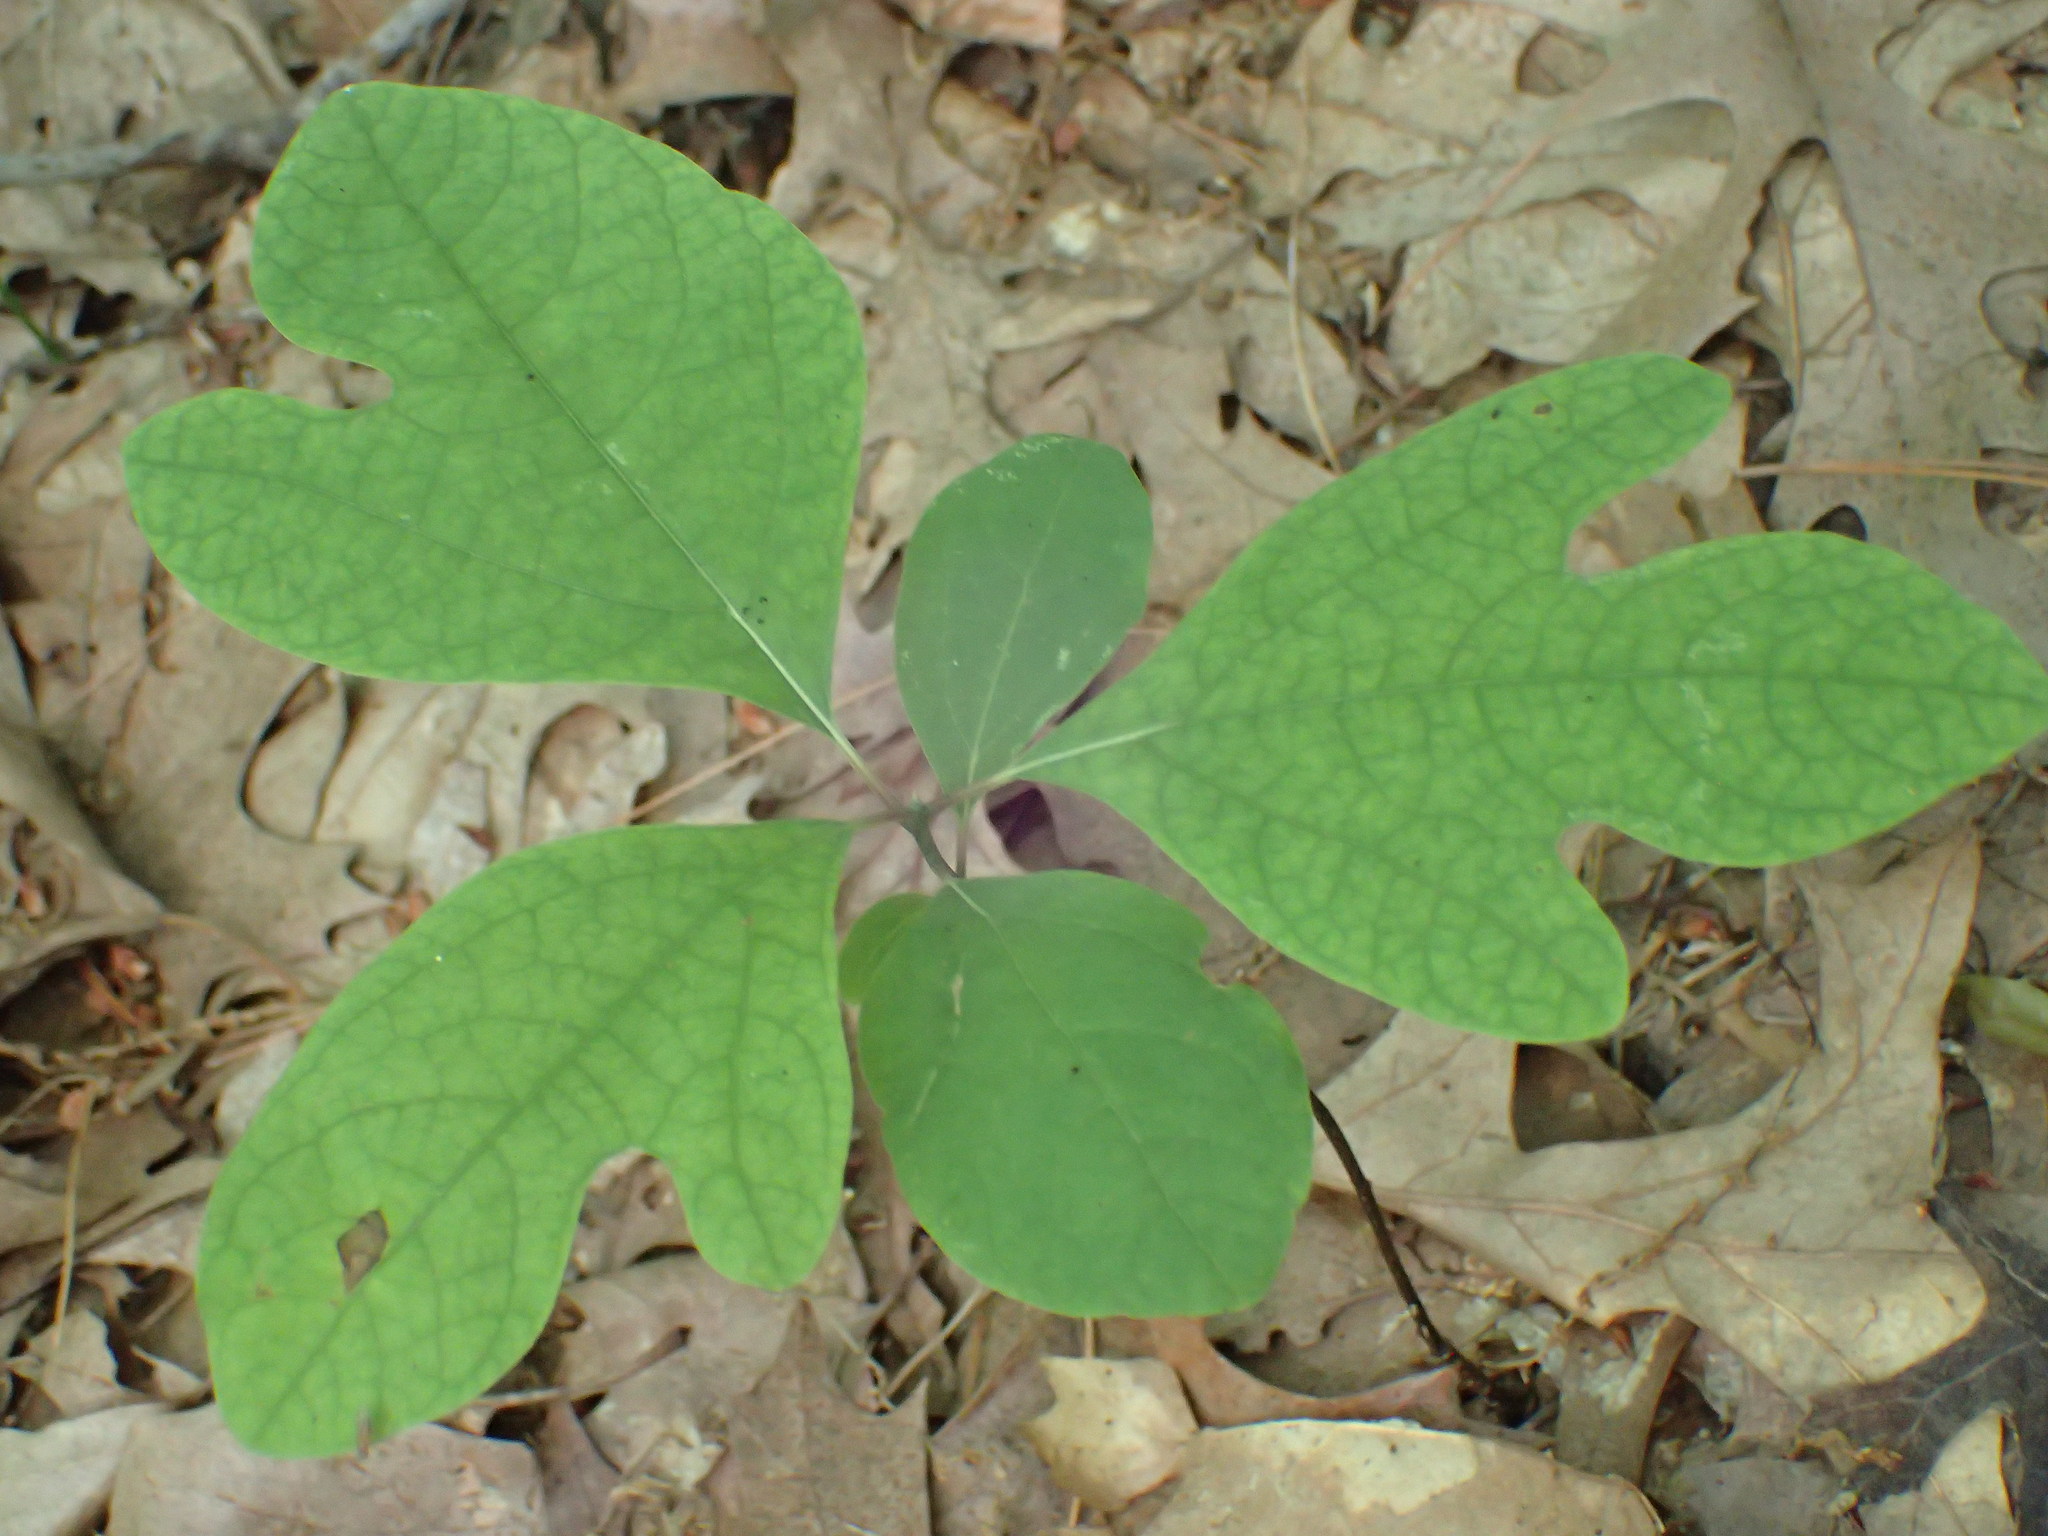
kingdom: Plantae
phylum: Tracheophyta
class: Magnoliopsida
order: Laurales
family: Lauraceae
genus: Sassafras
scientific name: Sassafras albidum
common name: Sassafras
